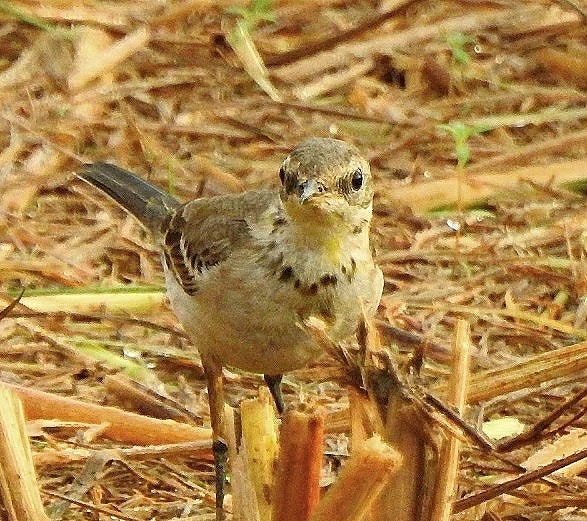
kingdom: Animalia
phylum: Chordata
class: Aves
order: Passeriformes
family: Motacillidae
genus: Motacilla
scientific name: Motacilla flava
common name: Western yellow wagtail
